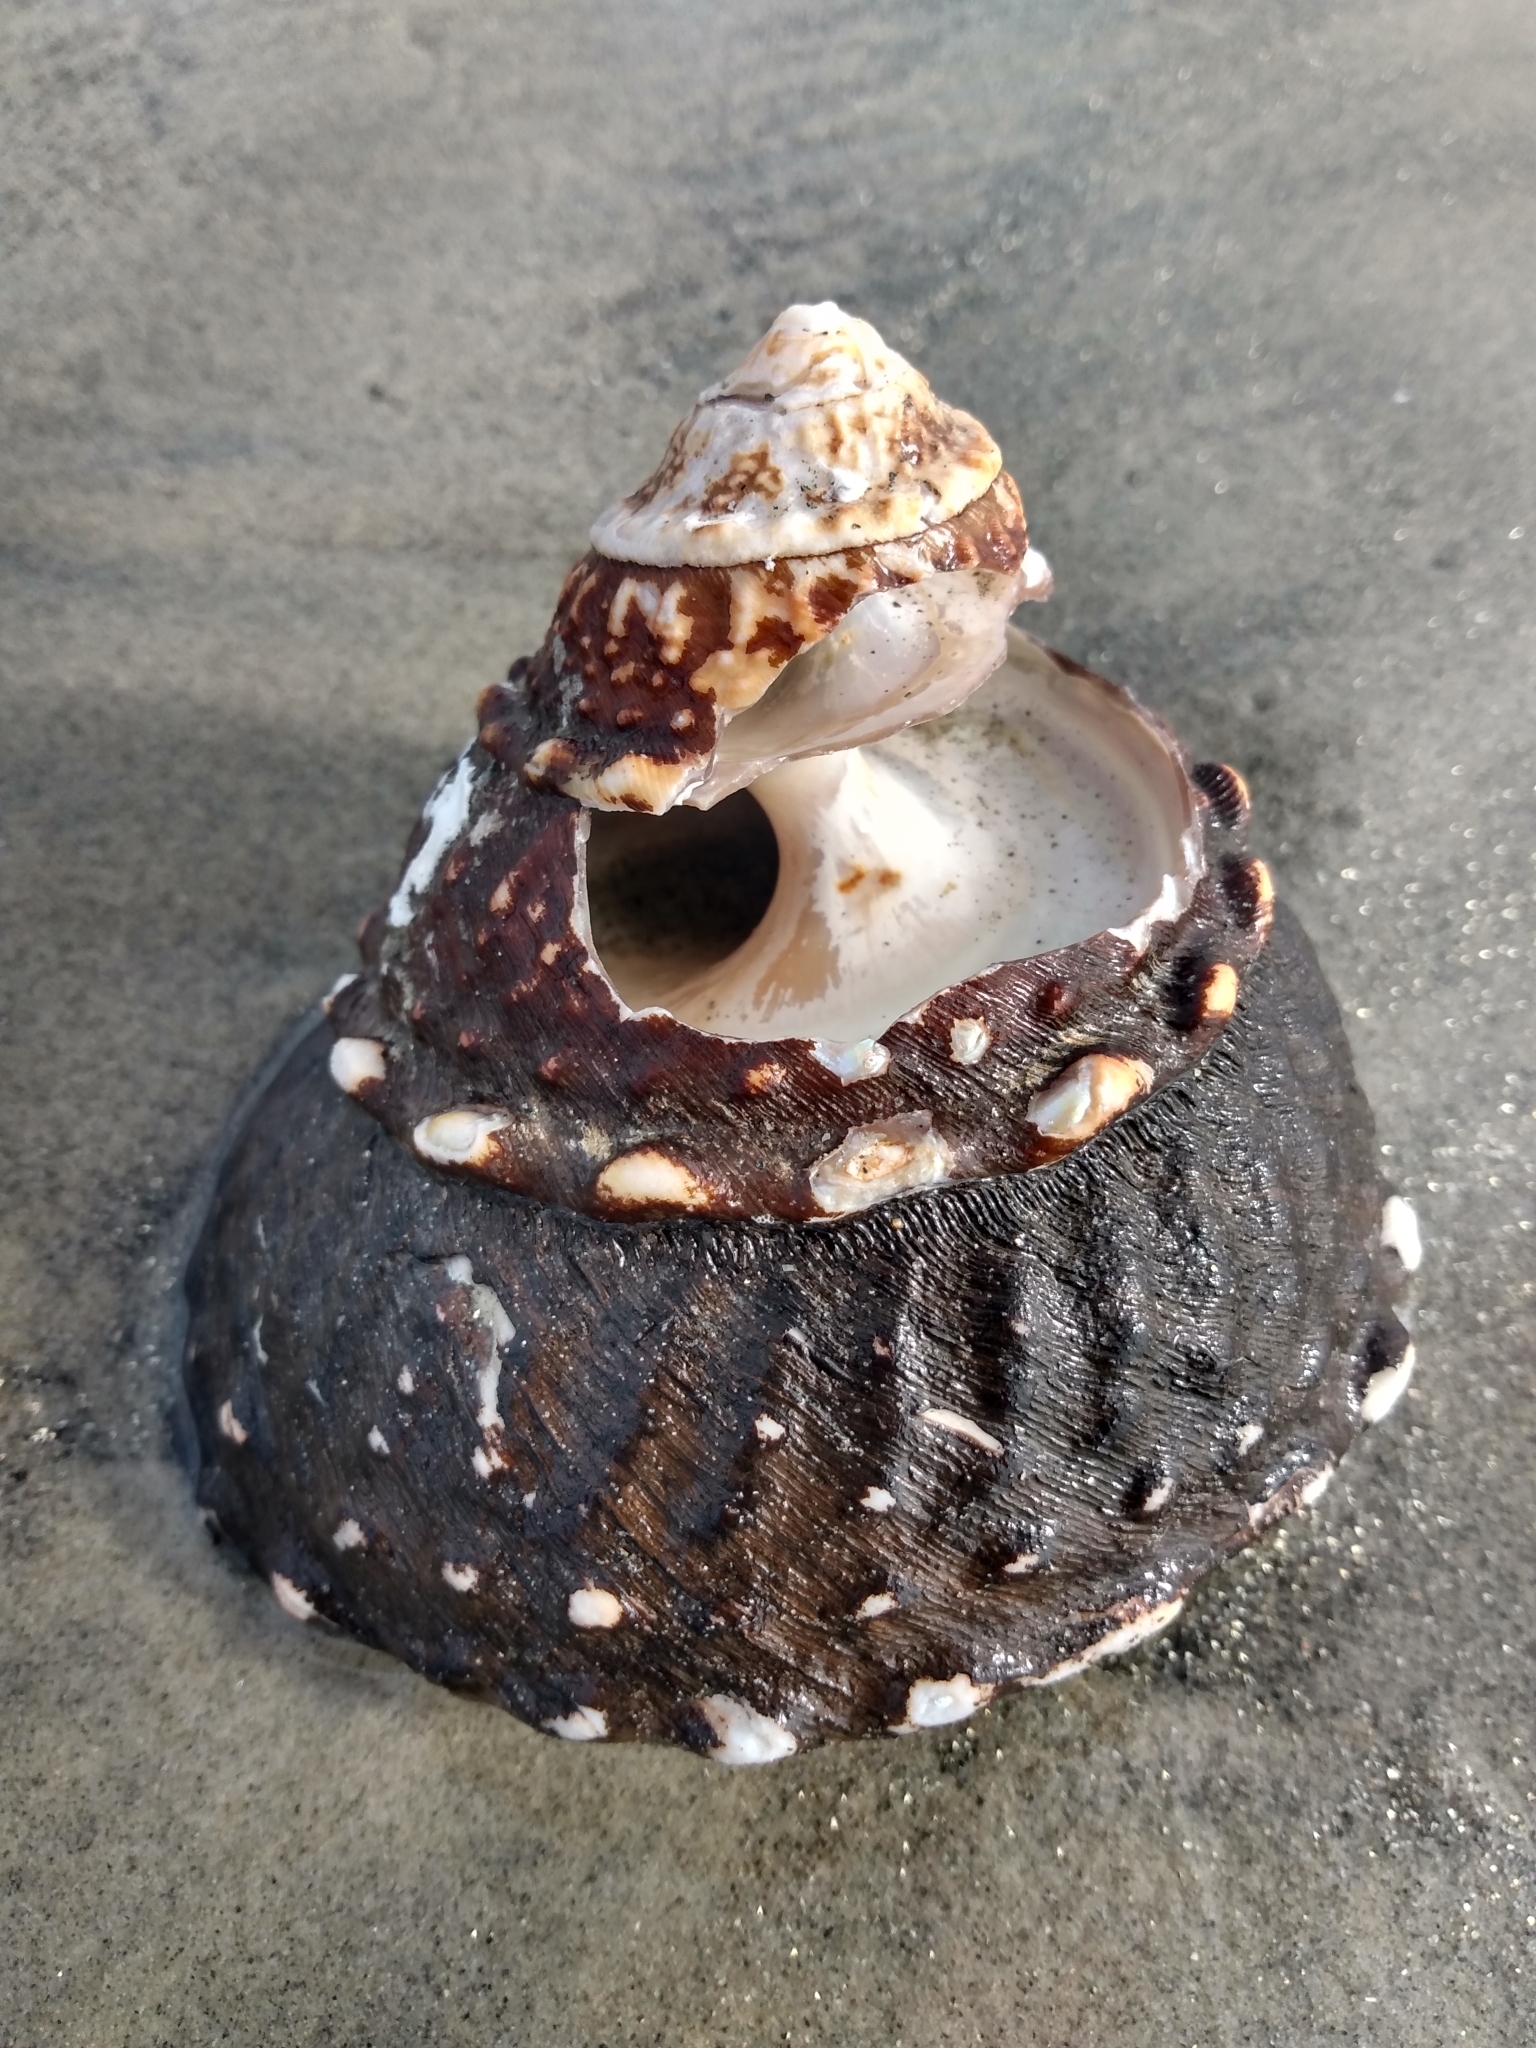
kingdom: Animalia
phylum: Mollusca
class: Gastropoda
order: Trochida
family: Turbinidae
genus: Megastraea
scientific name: Megastraea undosa
